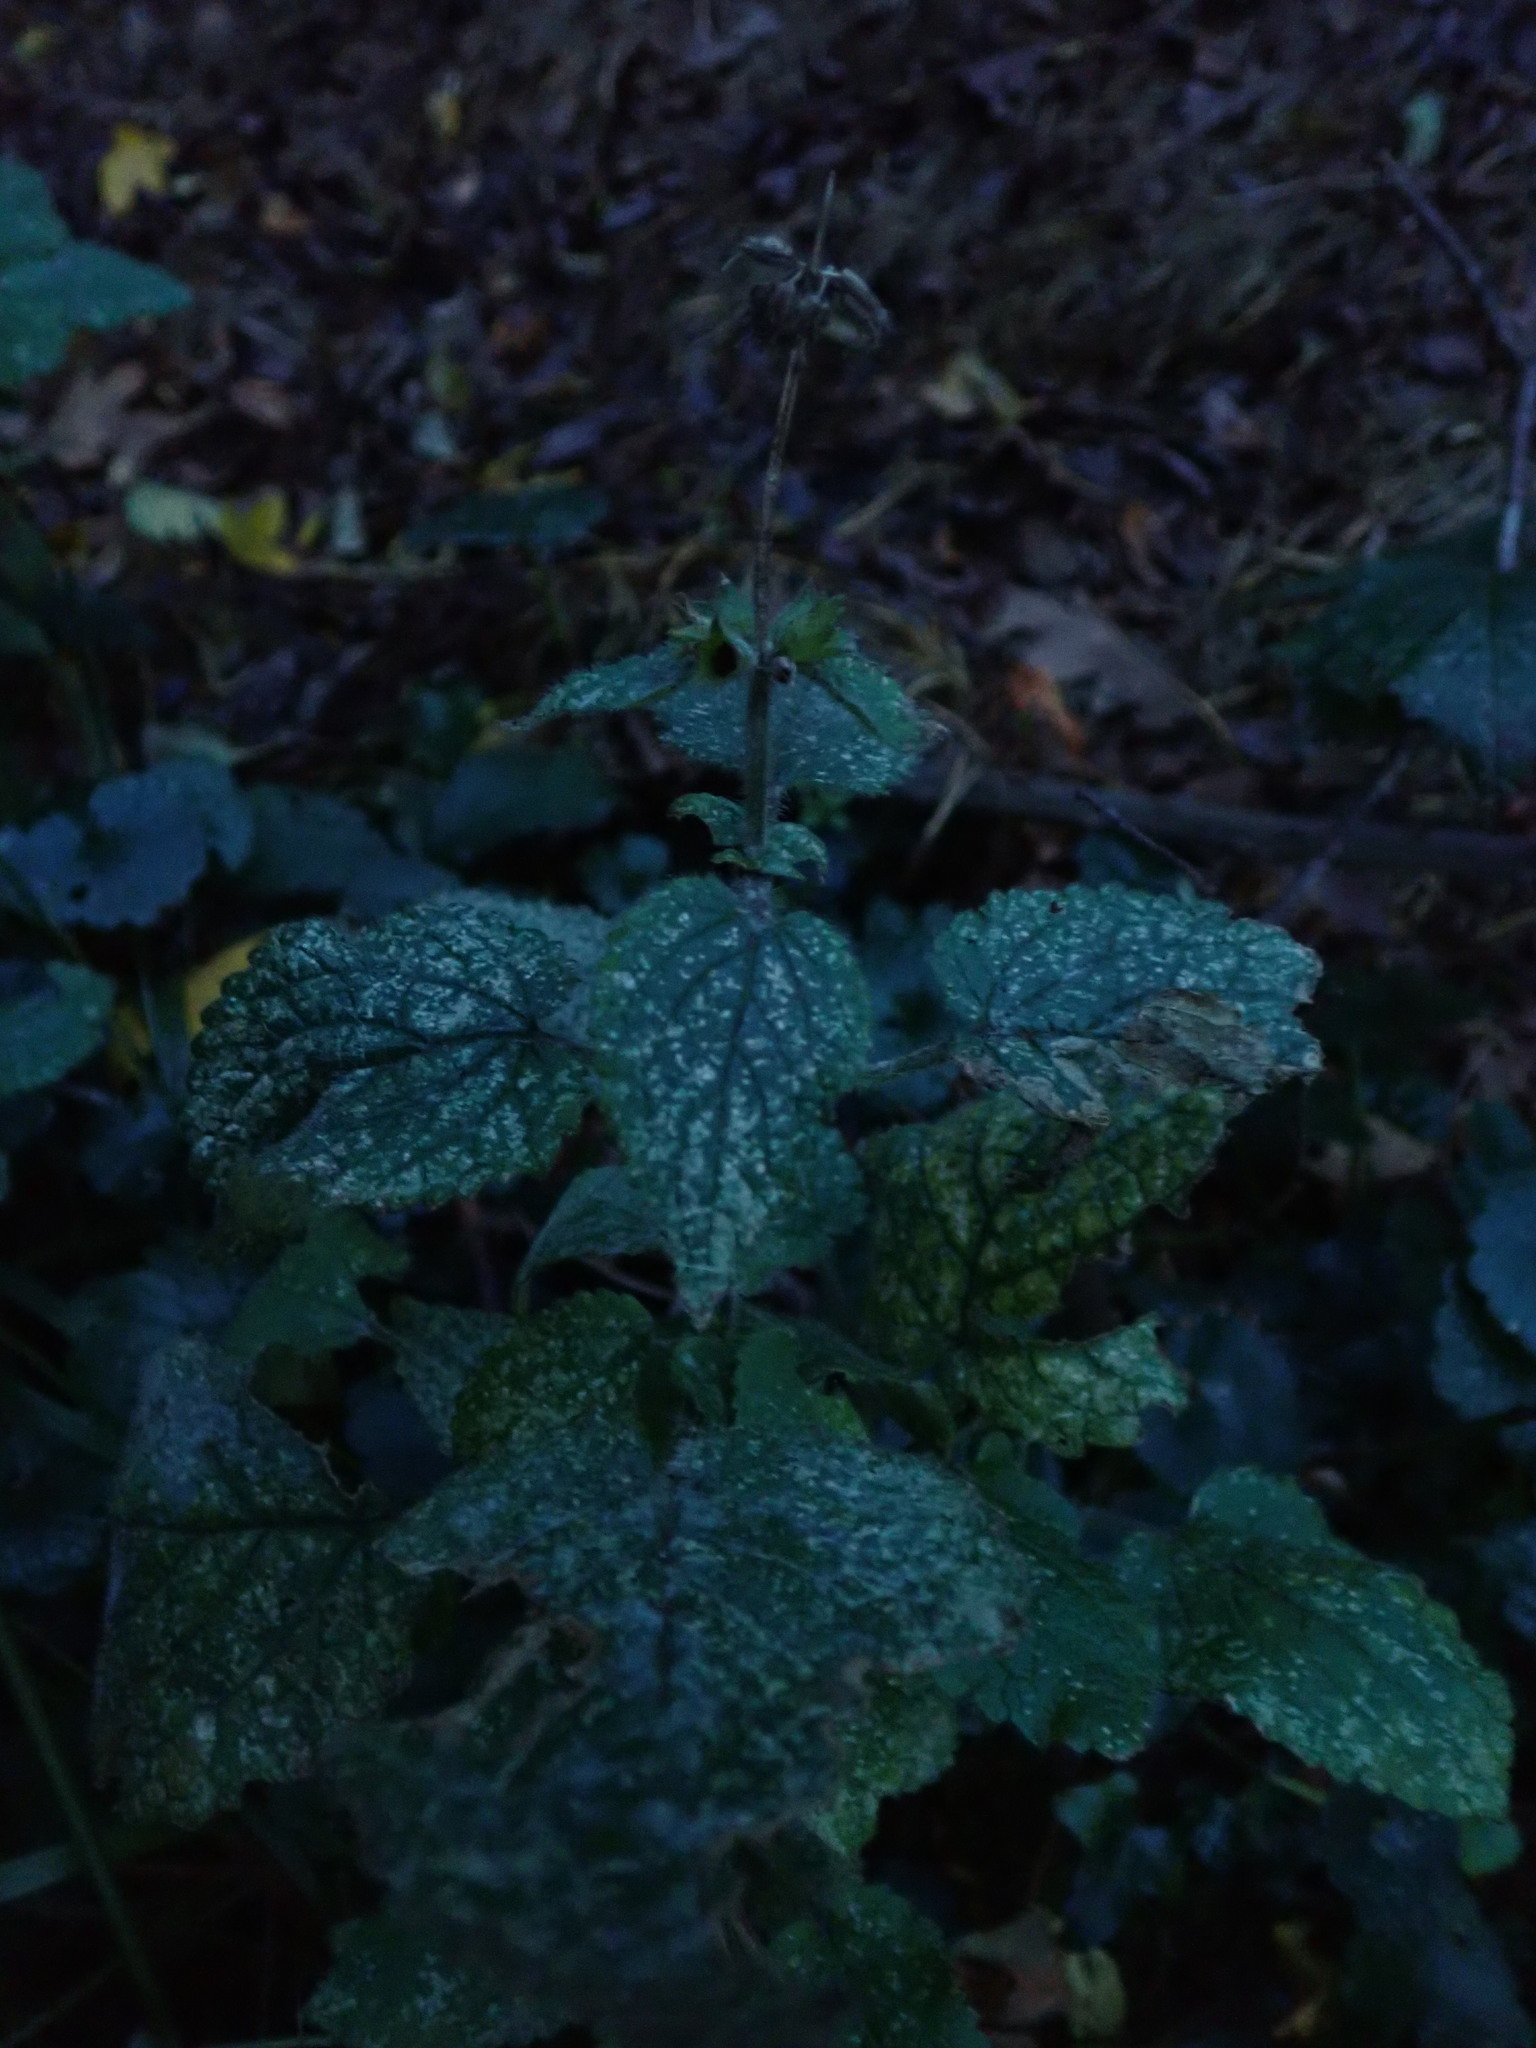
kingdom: Plantae
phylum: Tracheophyta
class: Magnoliopsida
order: Lamiales
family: Lamiaceae
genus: Stachys
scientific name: Stachys sylvatica
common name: Hedge woundwort
